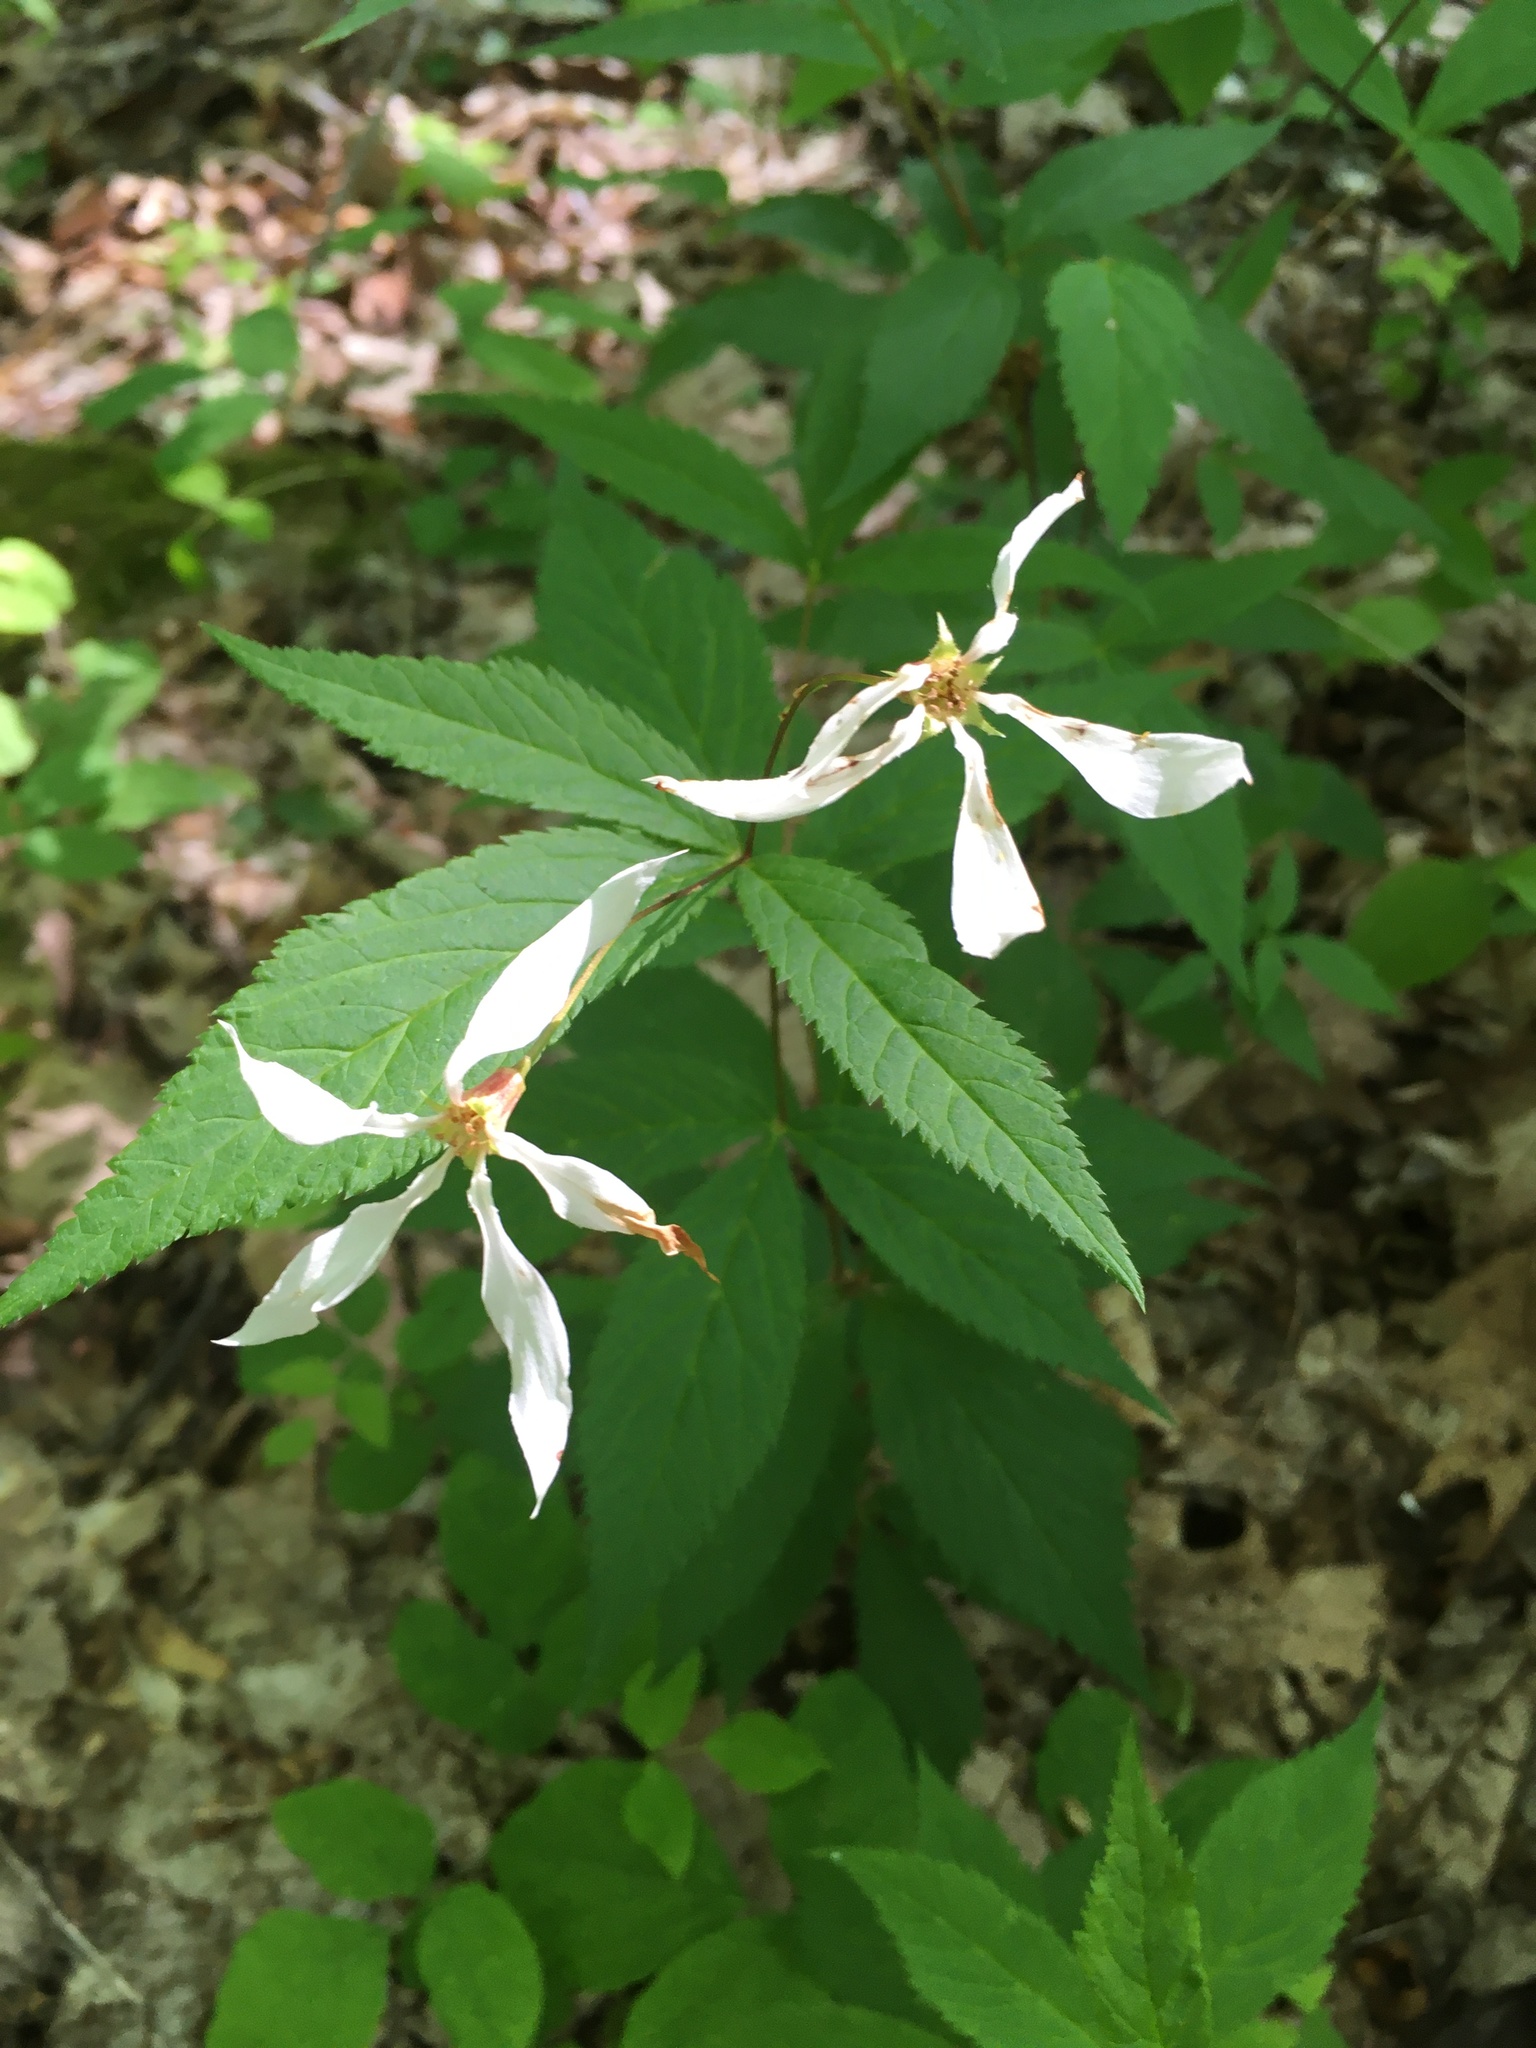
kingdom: Plantae
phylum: Tracheophyta
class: Magnoliopsida
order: Rosales
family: Rosaceae
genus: Gillenia
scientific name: Gillenia trifoliata
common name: Bowman's-root
